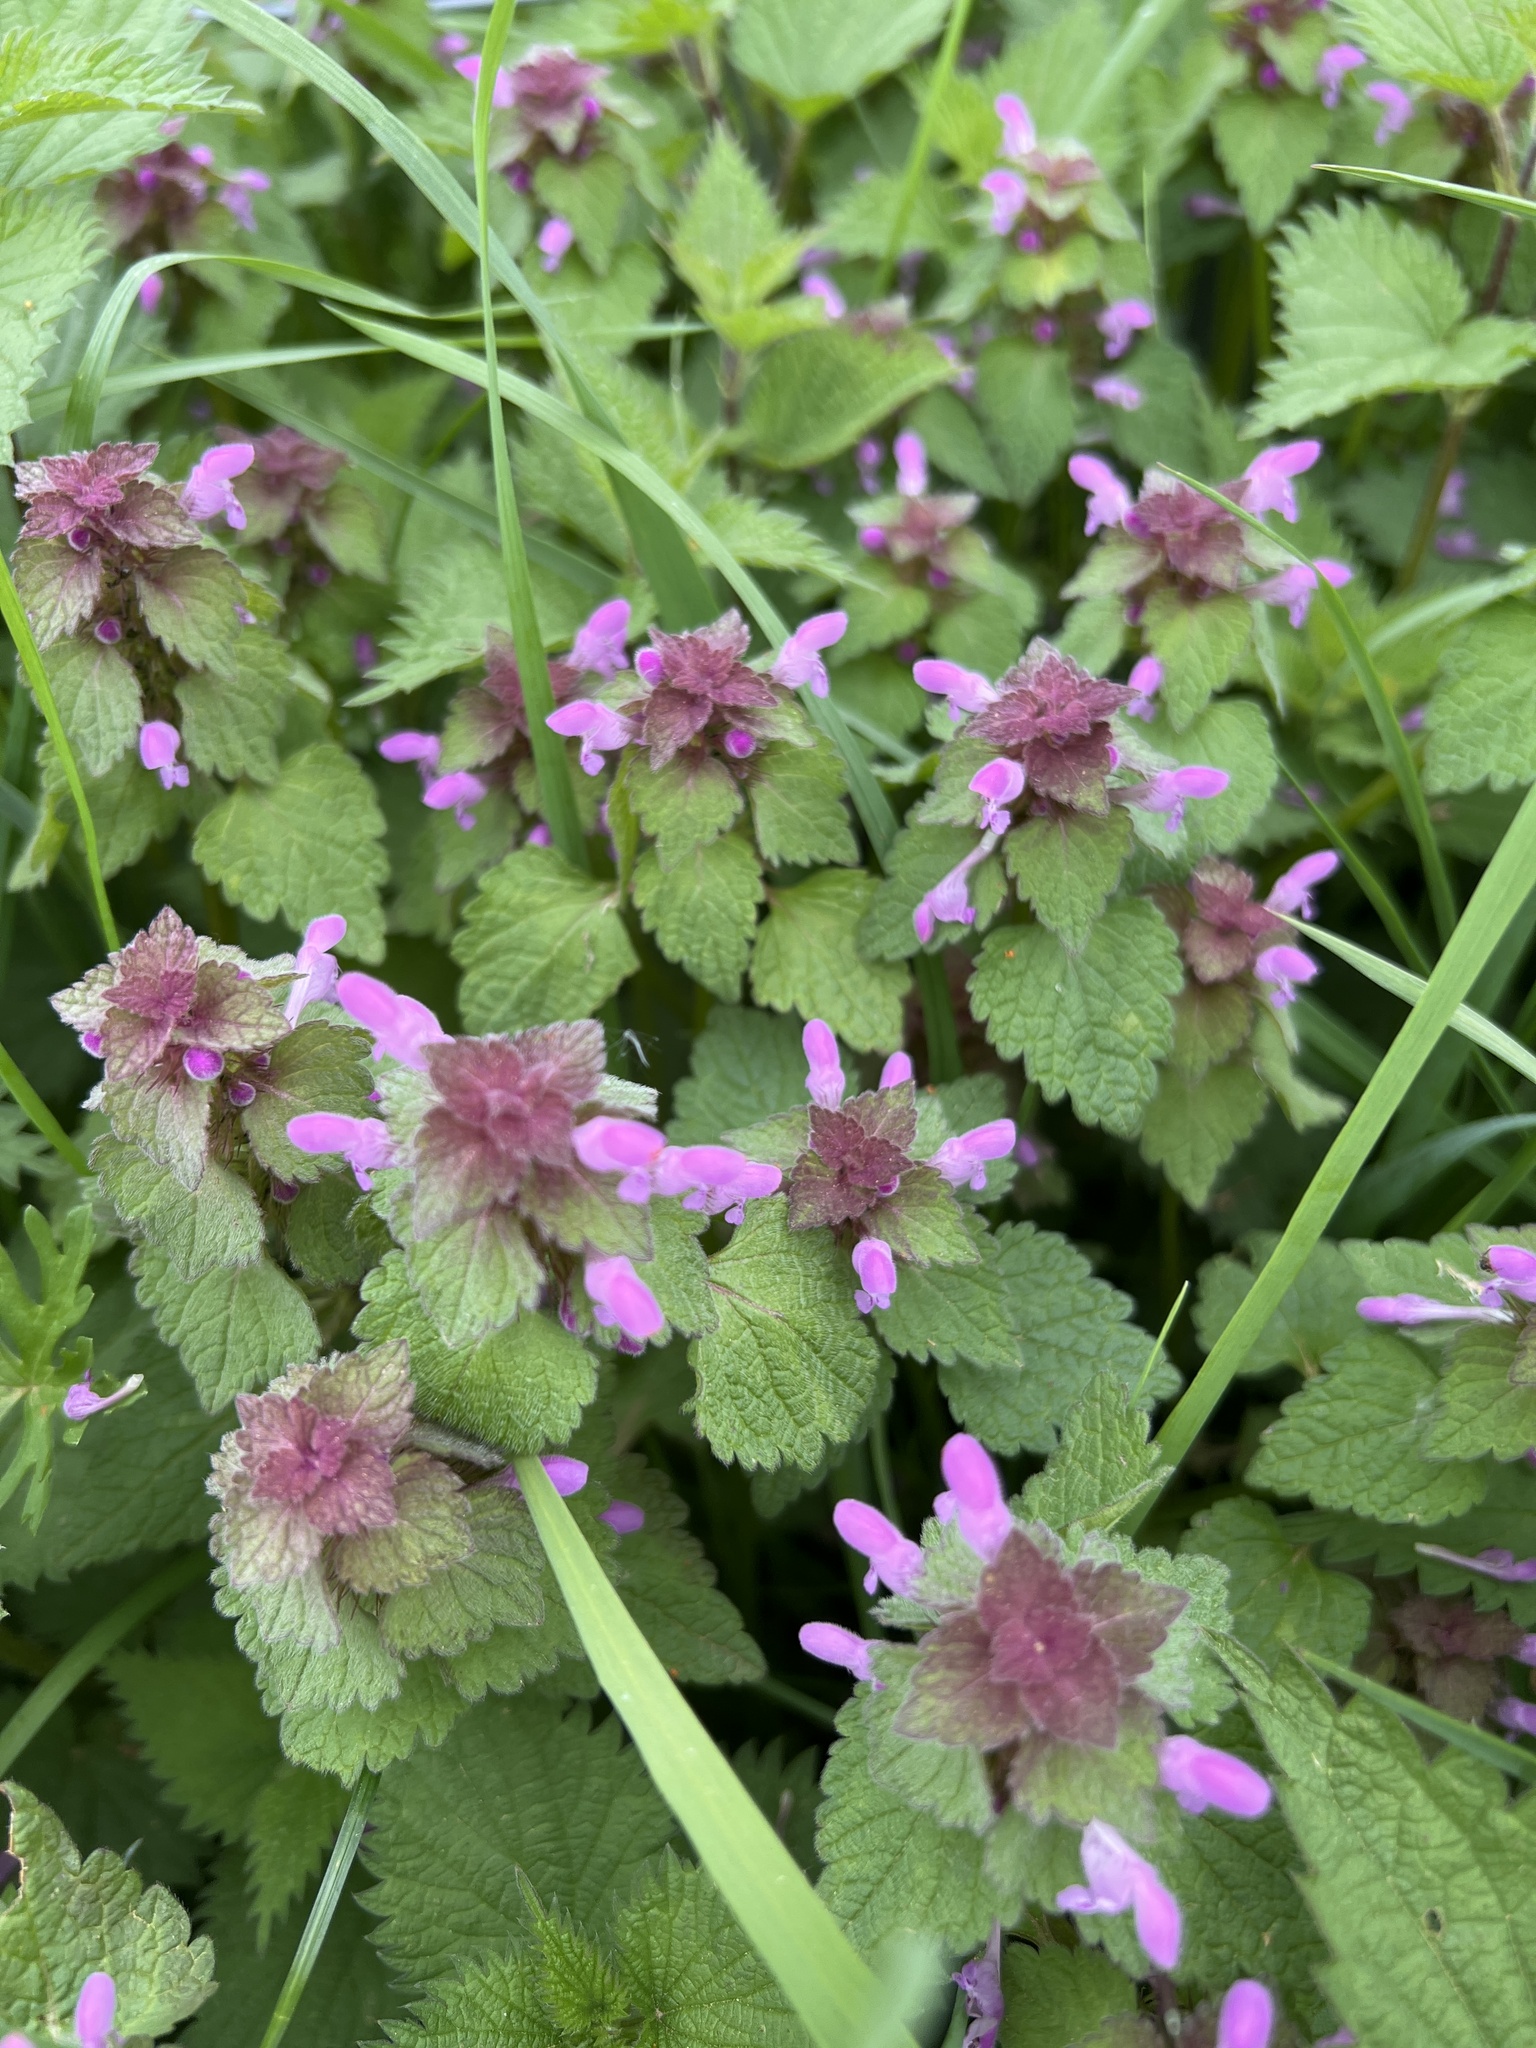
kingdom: Plantae
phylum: Tracheophyta
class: Magnoliopsida
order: Lamiales
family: Lamiaceae
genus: Lamium
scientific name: Lamium purpureum
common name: Red dead-nettle
